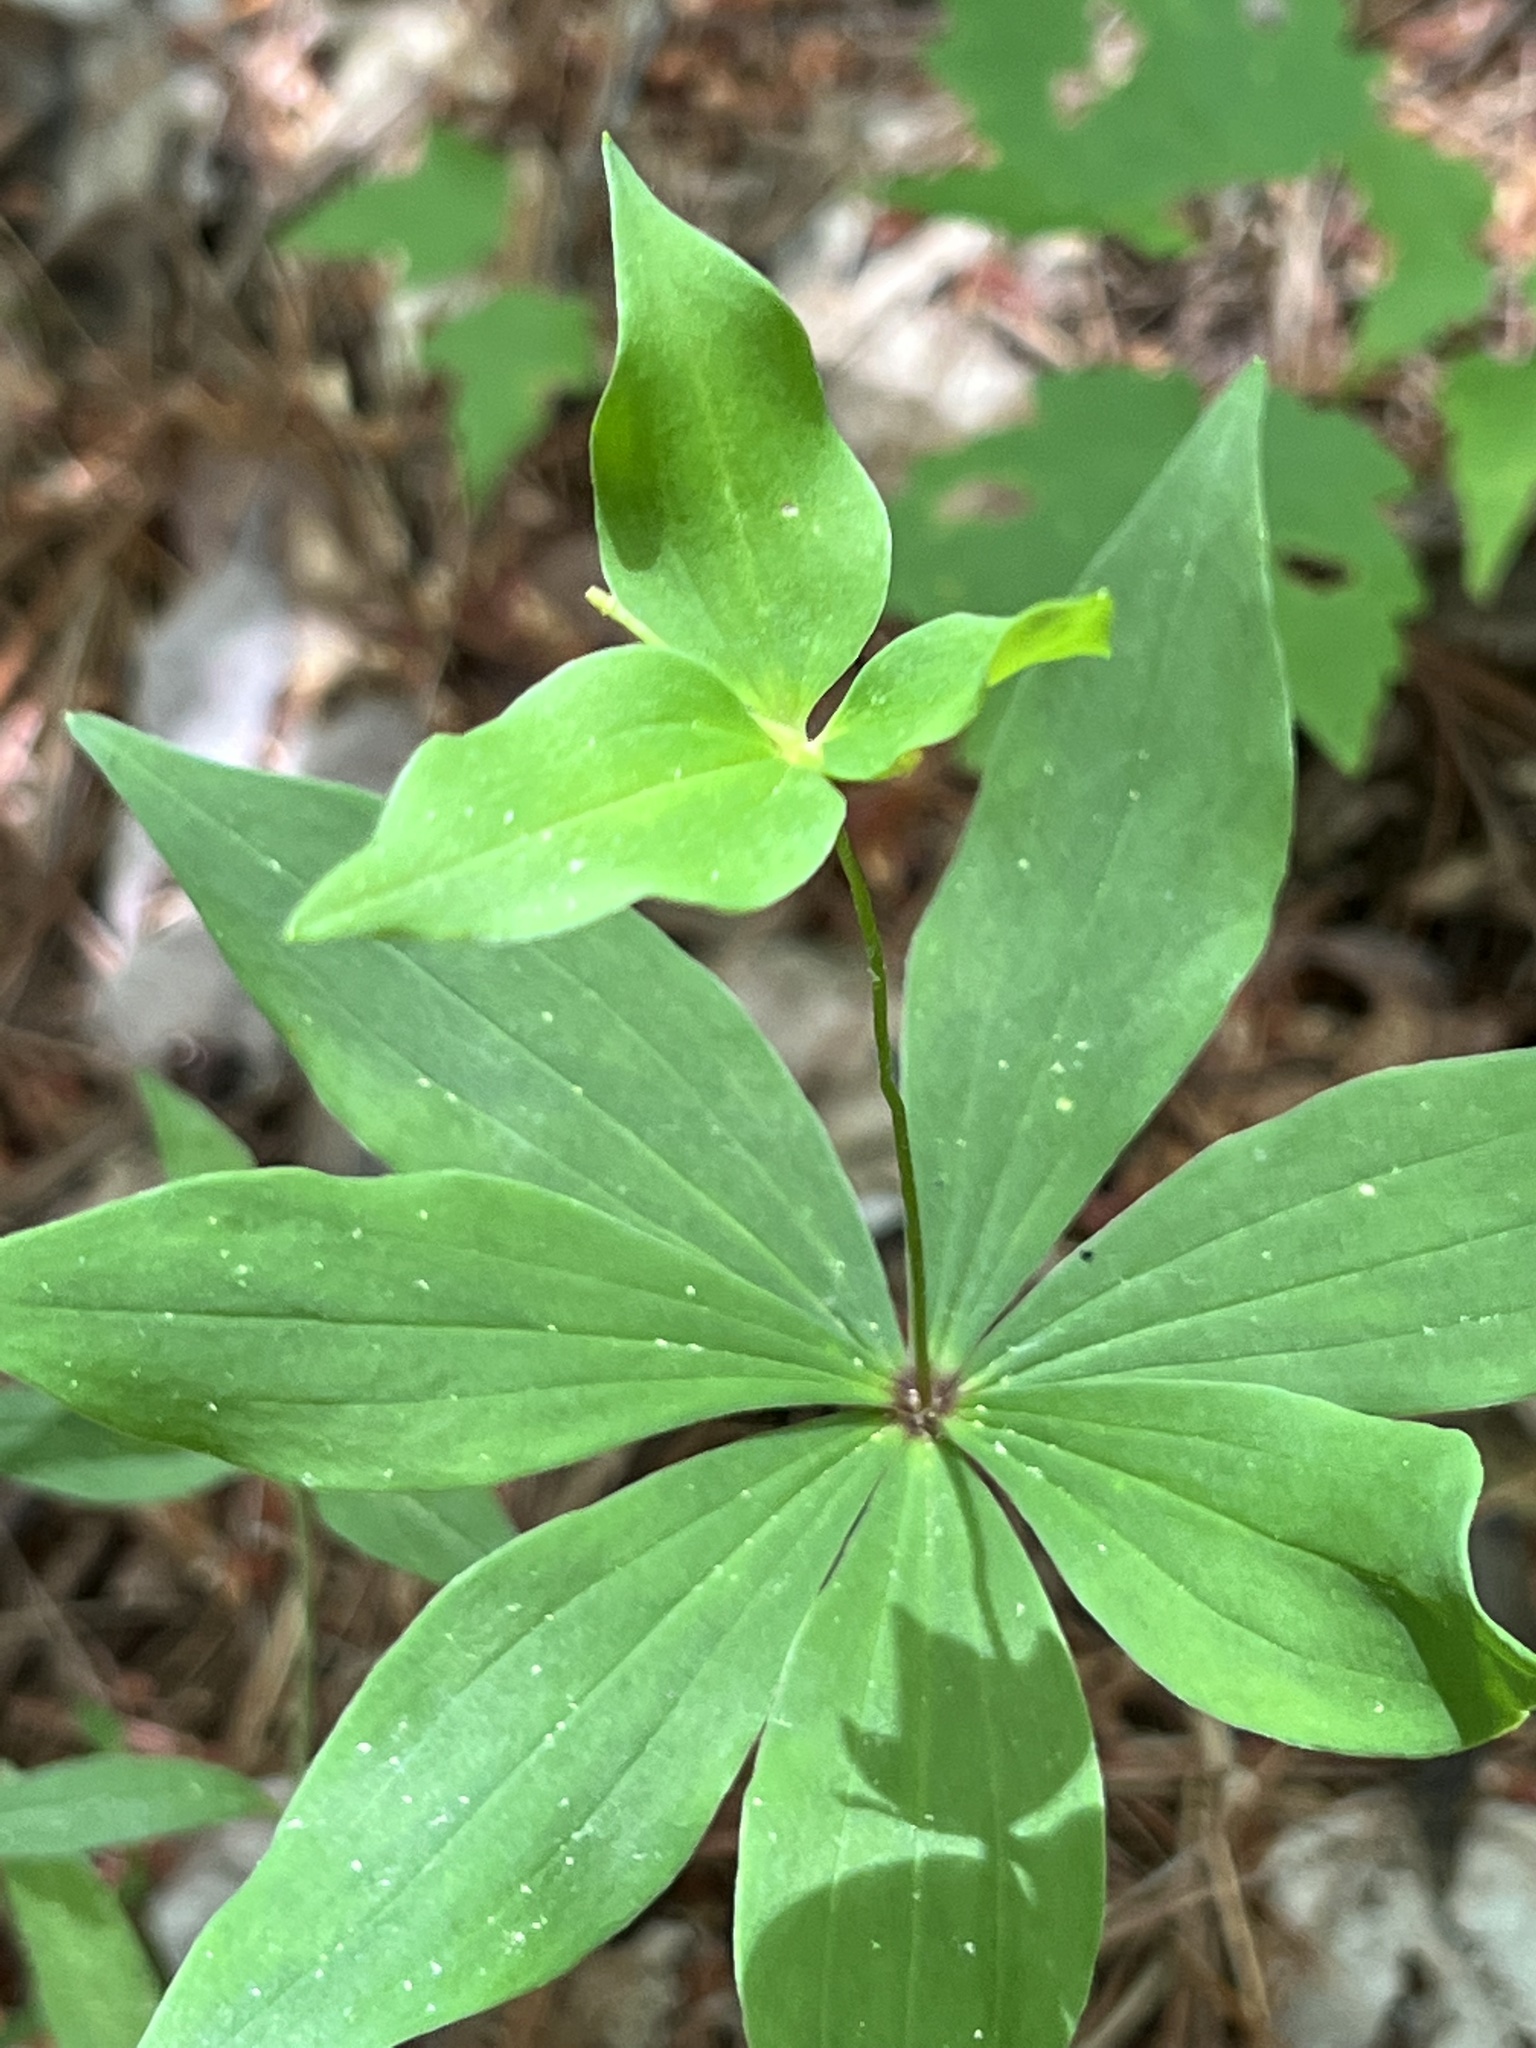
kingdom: Plantae
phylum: Tracheophyta
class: Liliopsida
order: Liliales
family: Liliaceae
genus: Medeola
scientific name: Medeola virginiana
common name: Indian cucumber-root
